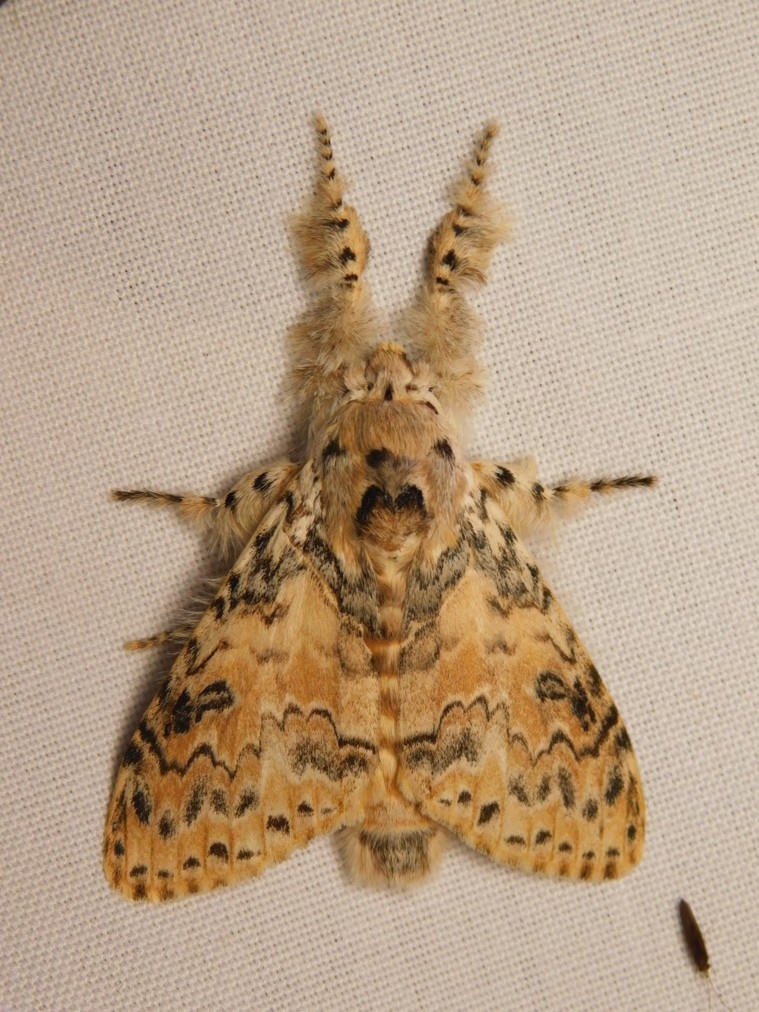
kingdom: Animalia
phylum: Arthropoda
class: Insecta
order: Lepidoptera
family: Erebidae
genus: Calliteara
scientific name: Calliteara cerigoides
